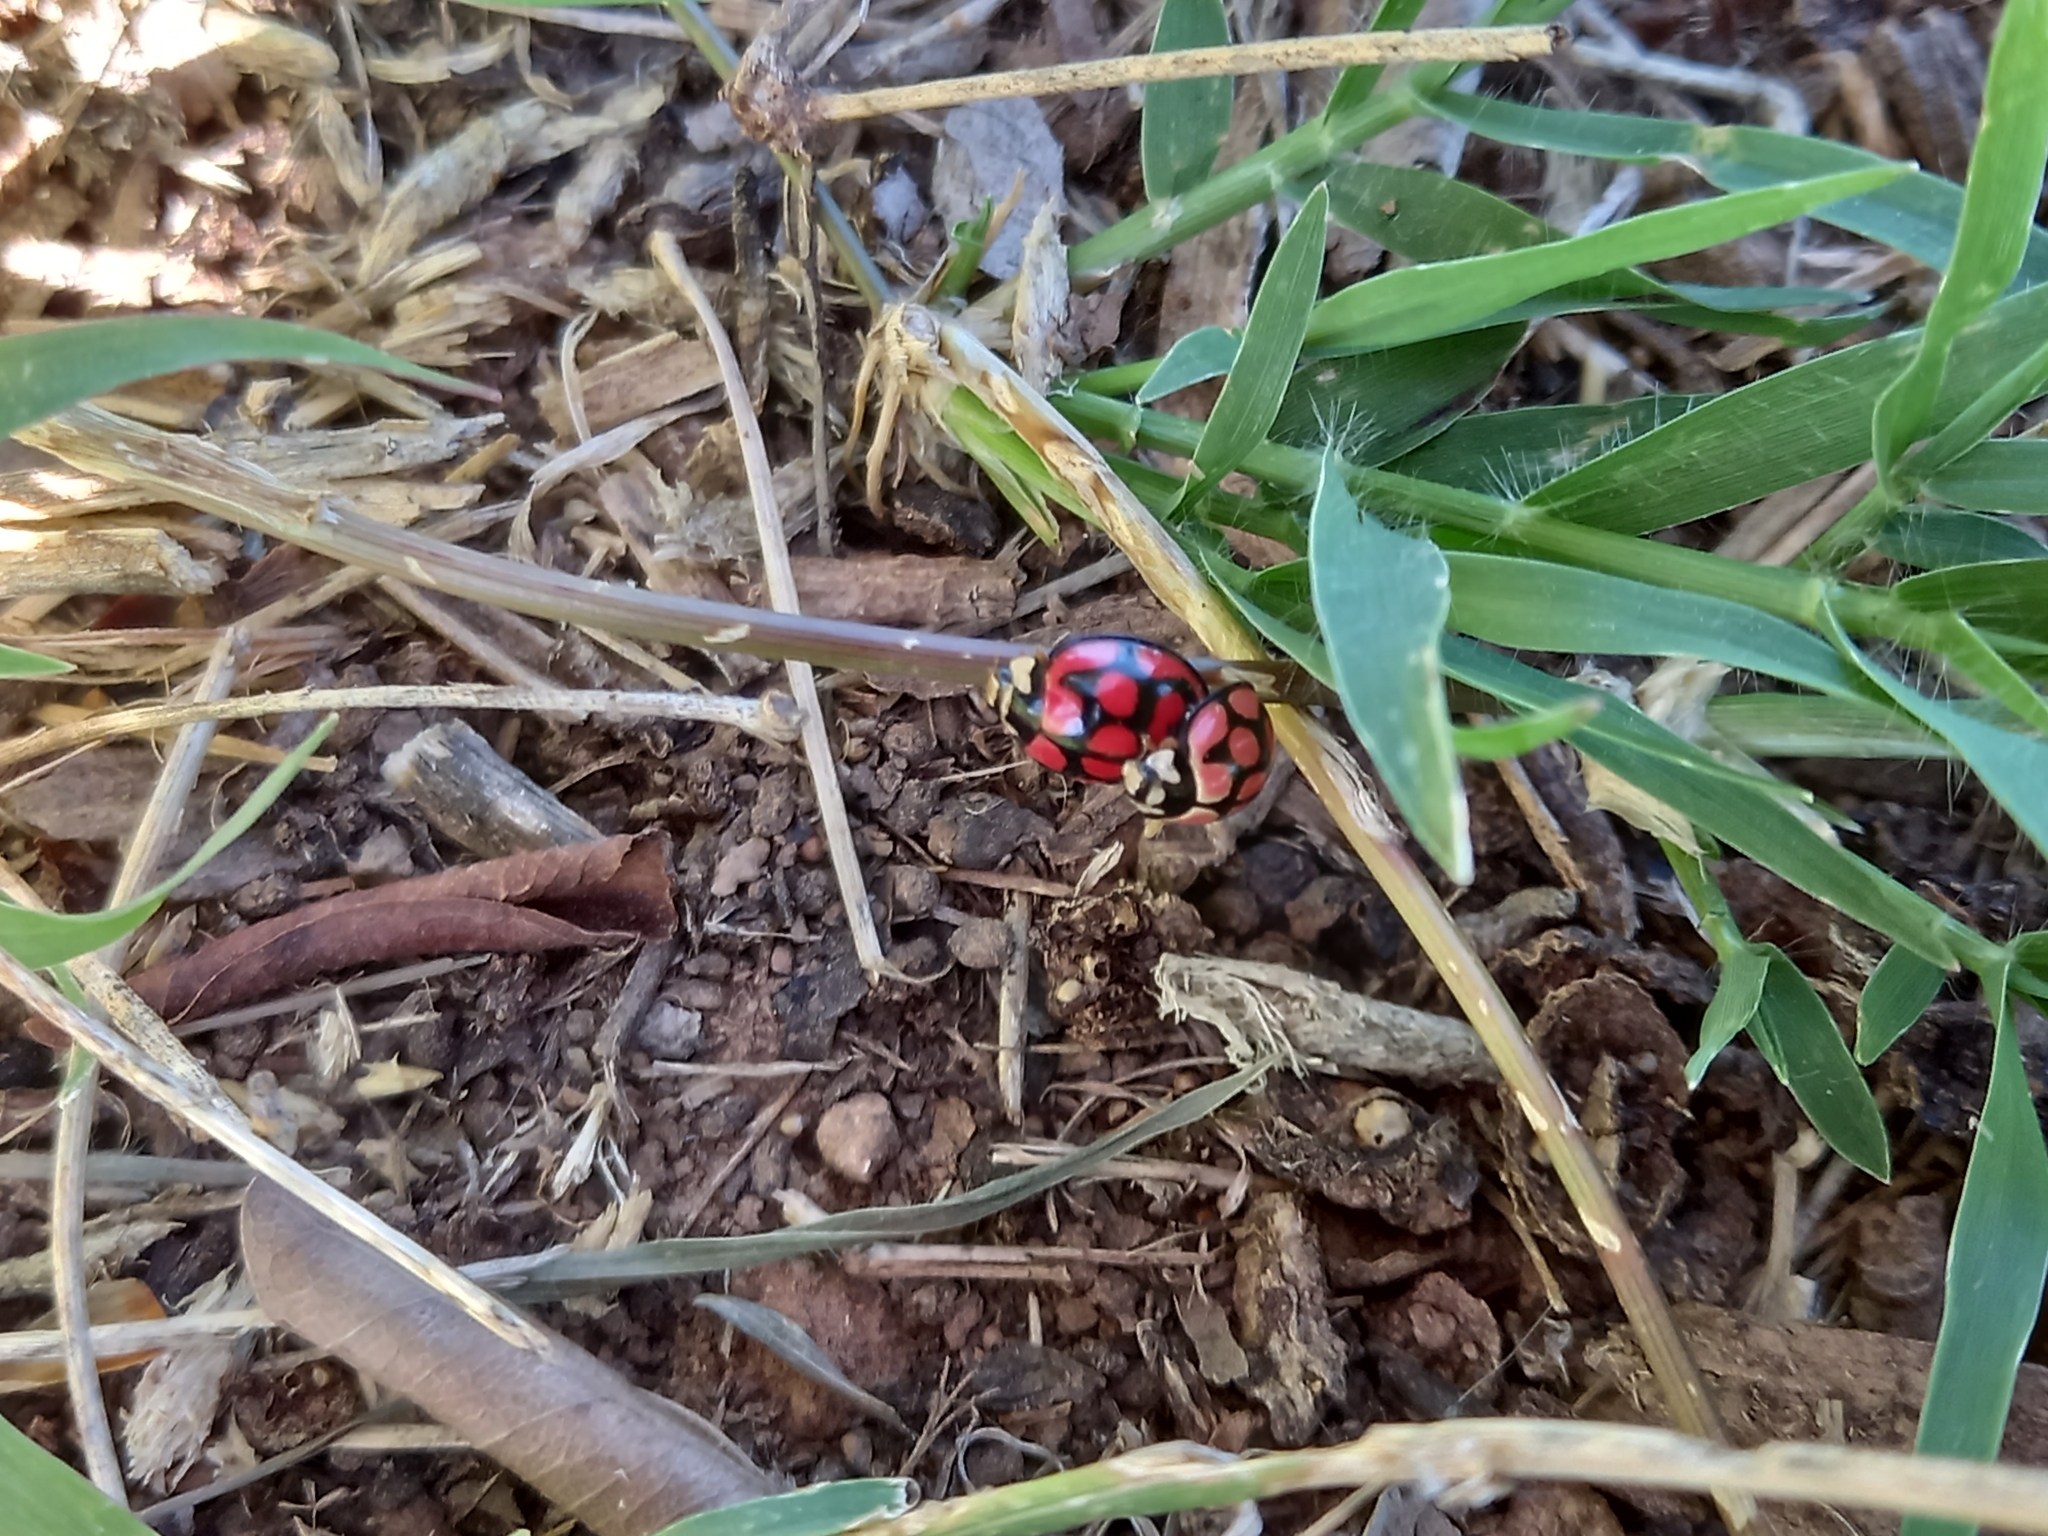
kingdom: Animalia
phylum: Arthropoda
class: Insecta
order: Coleoptera
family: Coccinellidae
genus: Cheilomenes
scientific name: Cheilomenes lunata
